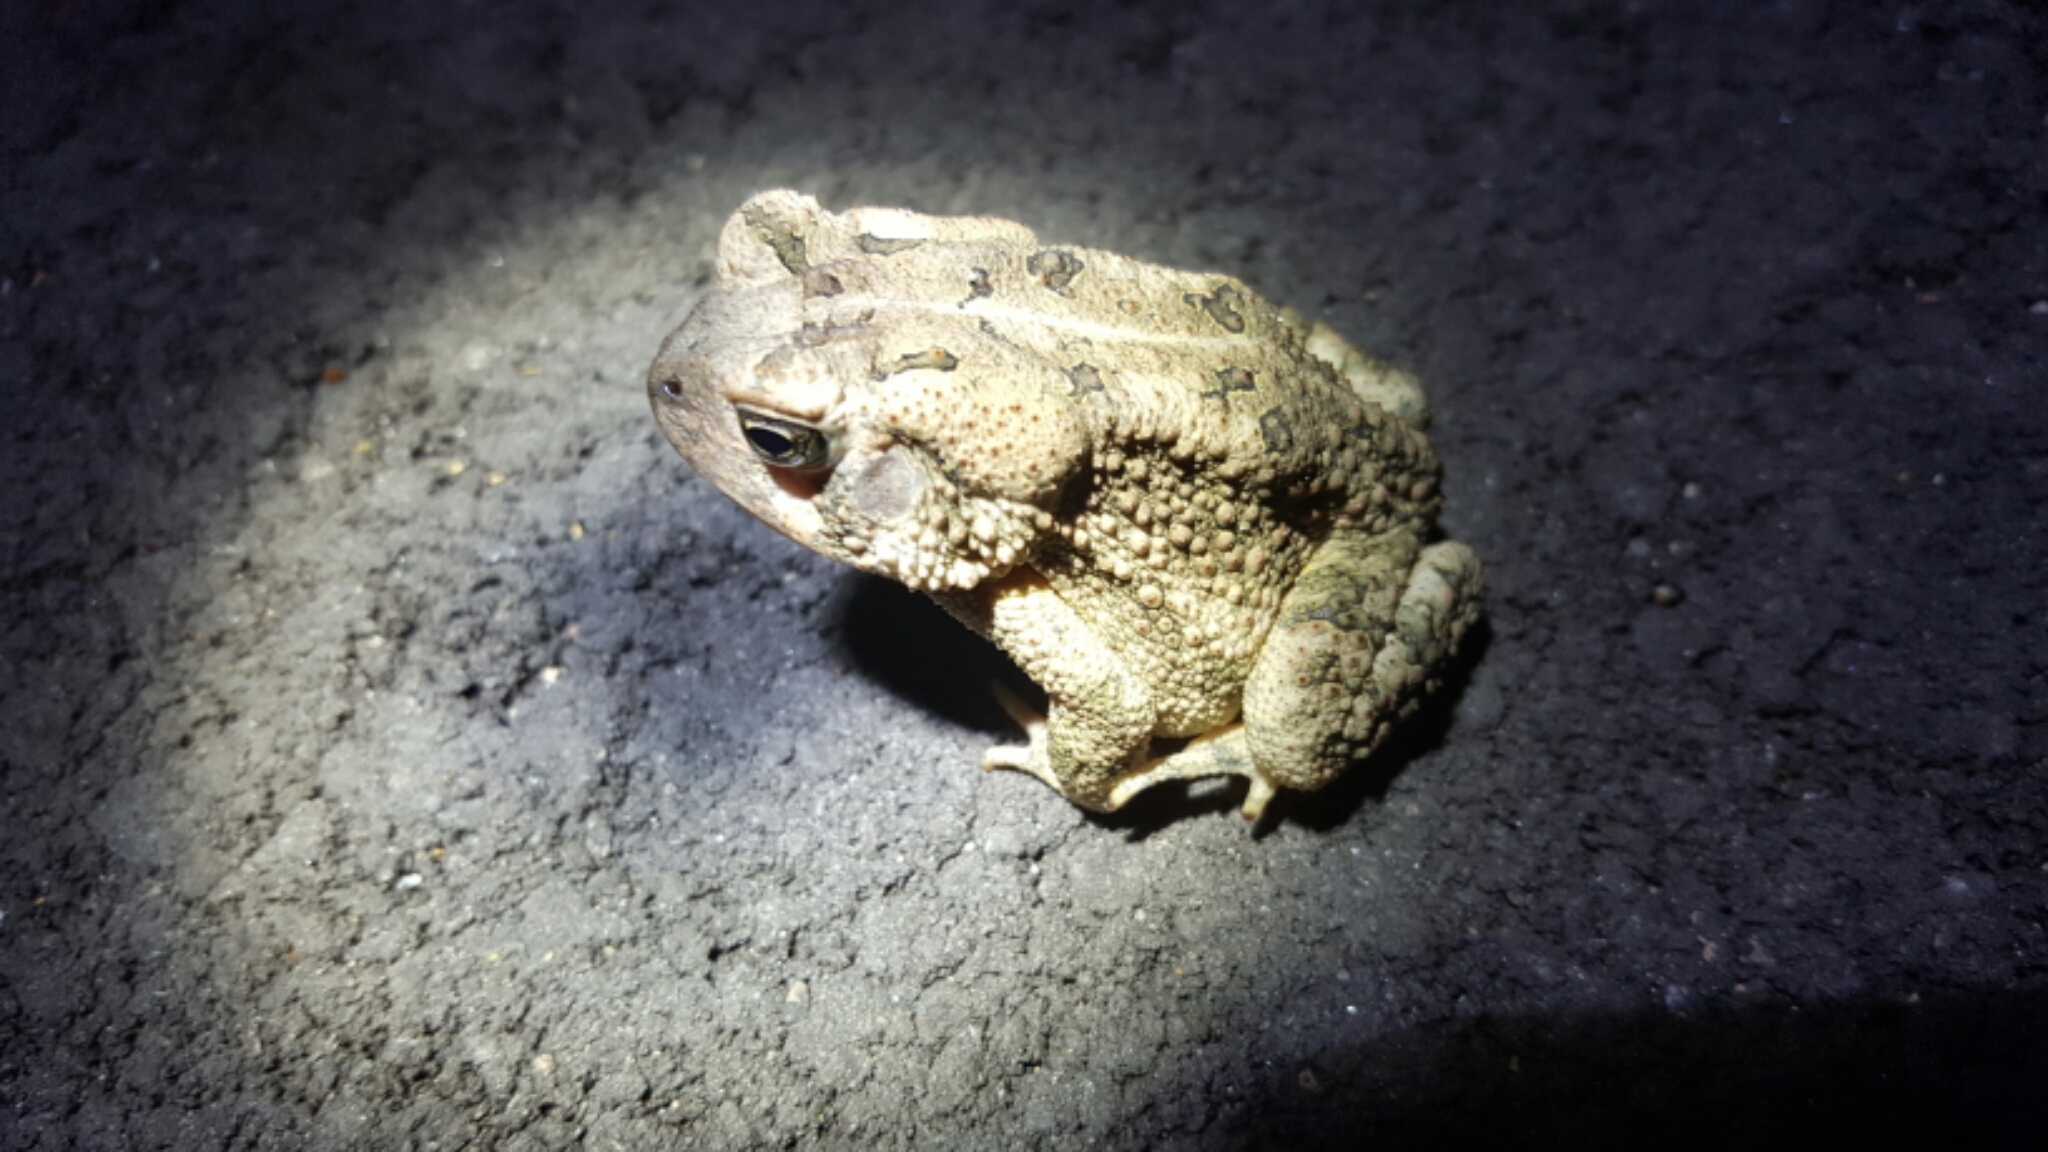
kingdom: Animalia
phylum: Chordata
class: Amphibia
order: Anura
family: Bufonidae
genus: Anaxyrus
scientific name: Anaxyrus fowleri
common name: Fowler's toad
